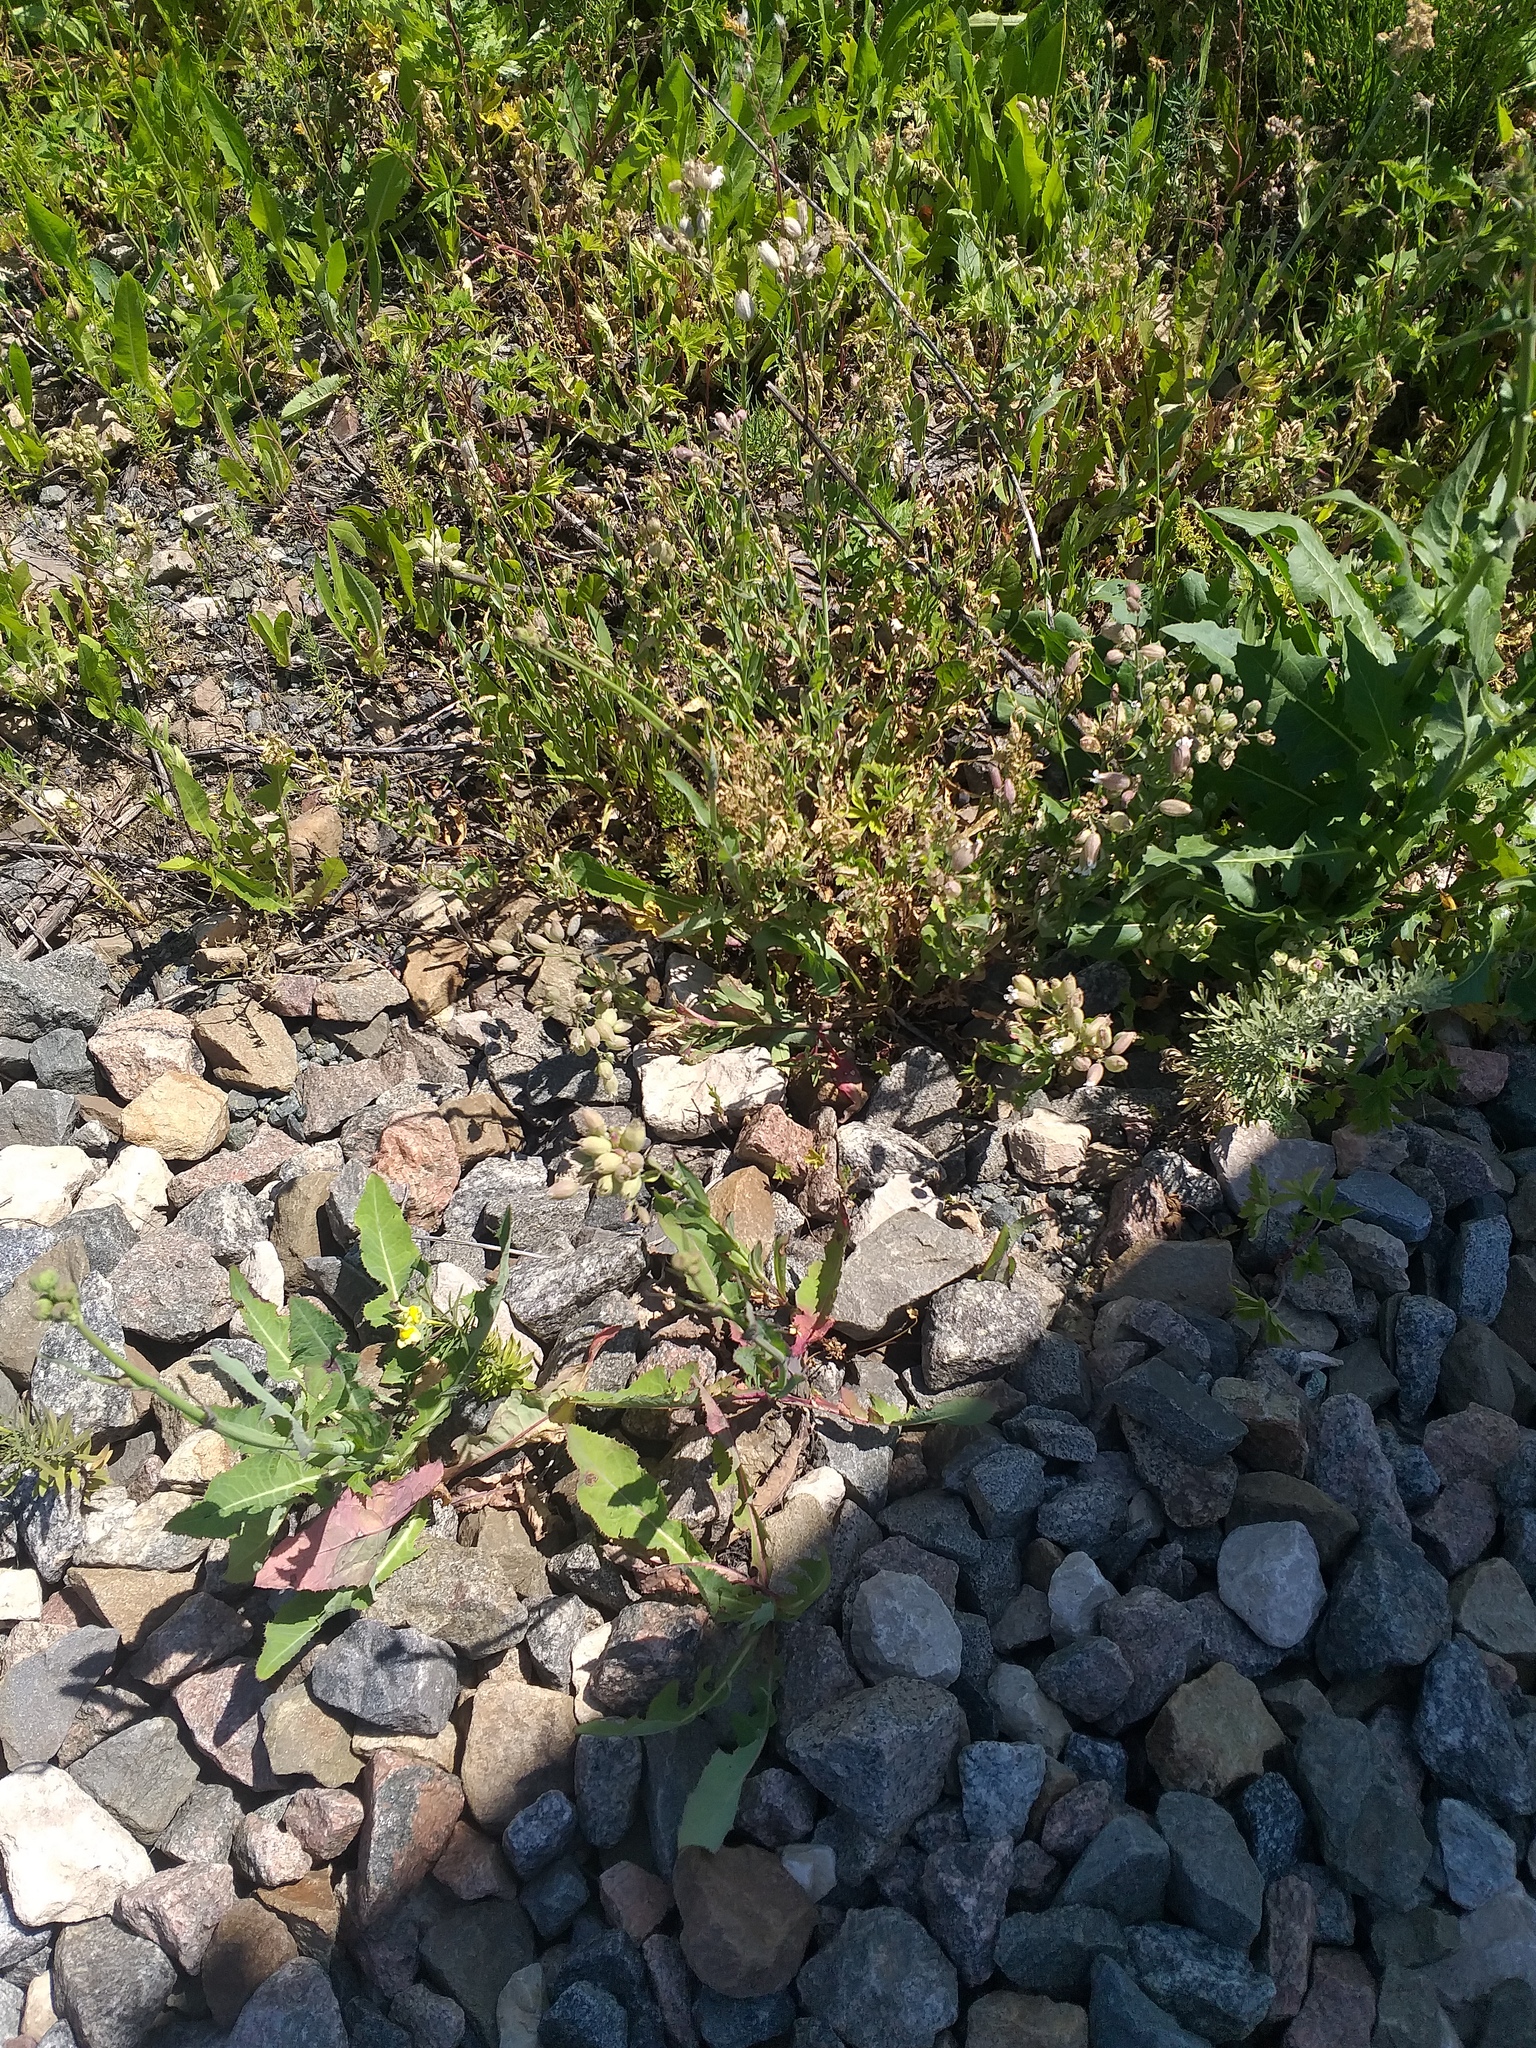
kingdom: Plantae
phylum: Tracheophyta
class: Magnoliopsida
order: Caryophyllales
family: Caryophyllaceae
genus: Silene
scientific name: Silene vulgaris
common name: Bladder campion
